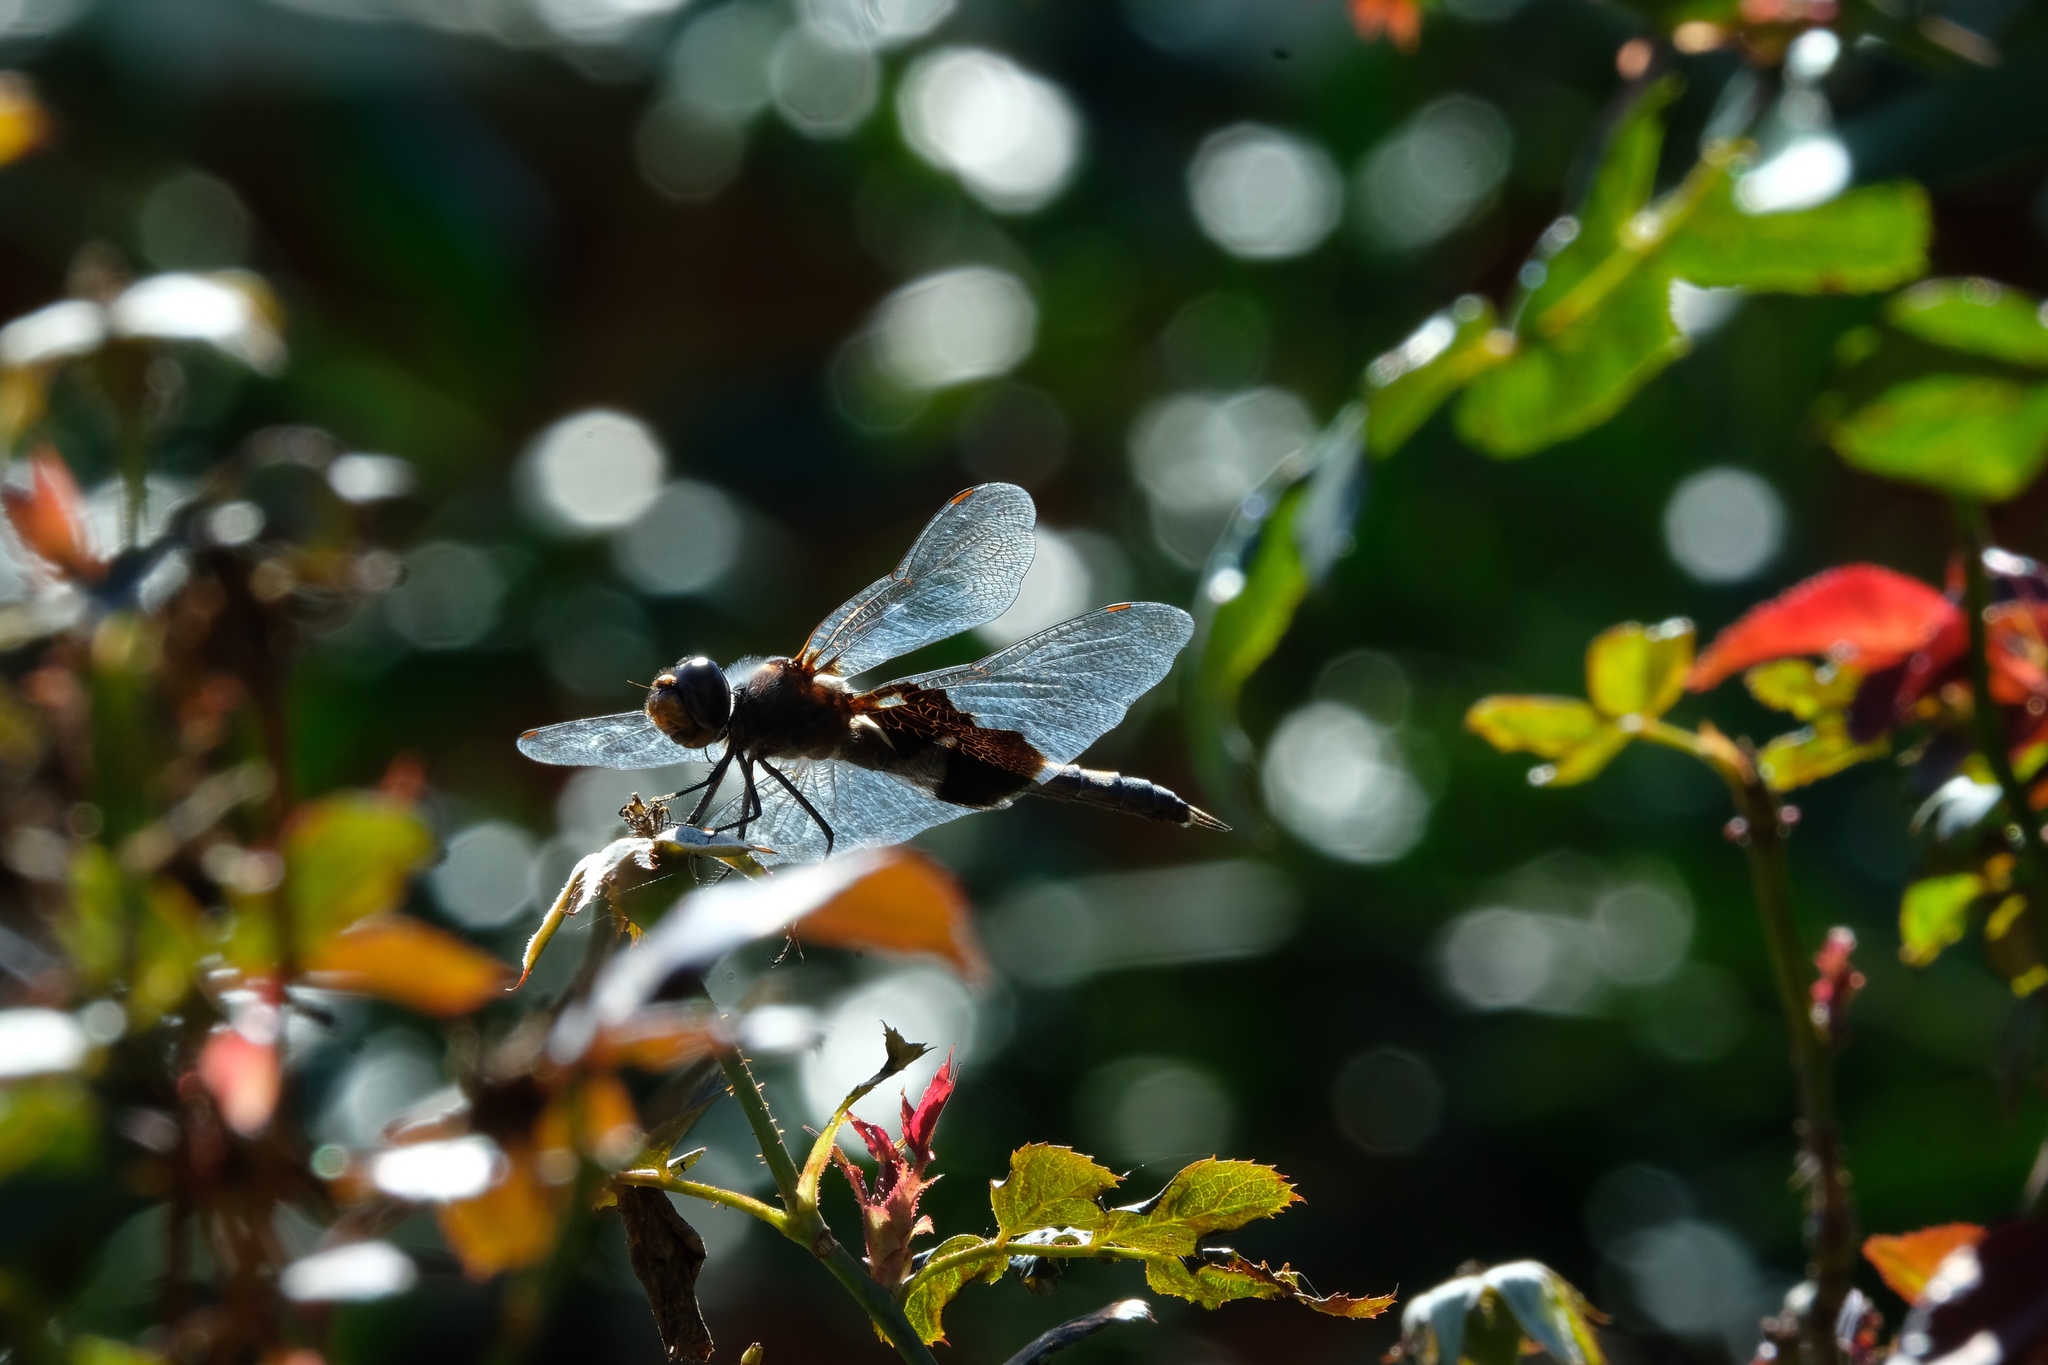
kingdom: Animalia
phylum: Arthropoda
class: Insecta
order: Odonata
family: Libellulidae
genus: Tramea
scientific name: Tramea lacerata
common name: Black saddlebags
